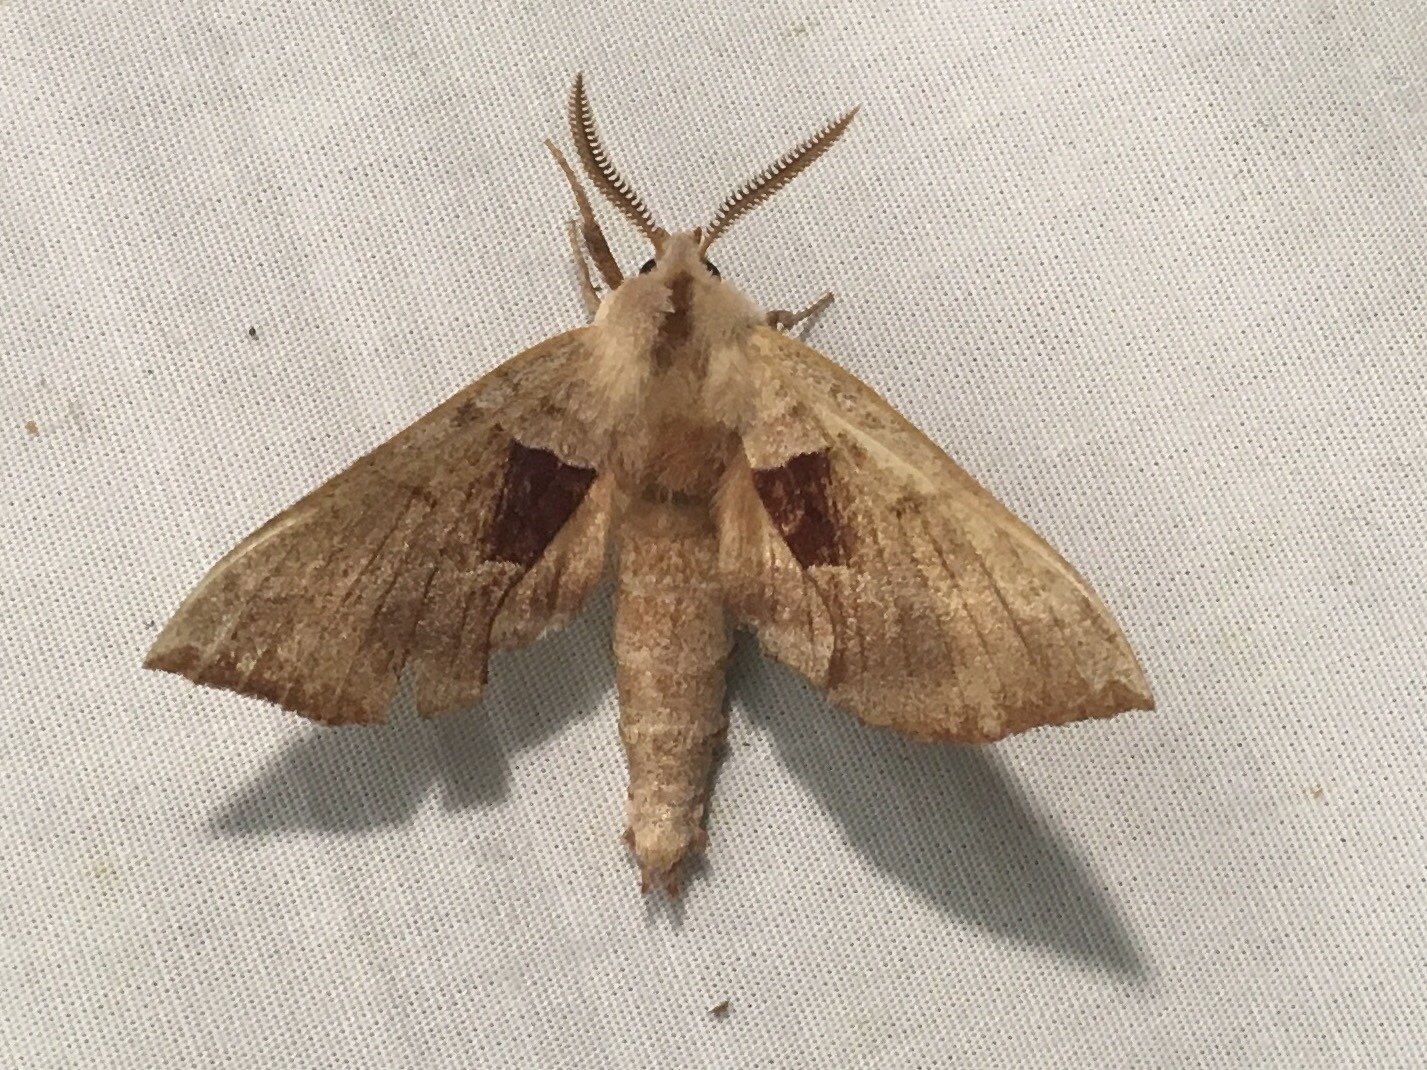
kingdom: Animalia
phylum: Arthropoda
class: Insecta
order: Lepidoptera
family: Sphingidae
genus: Amorpha
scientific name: Amorpha juglandis
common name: Walnut sphinx
